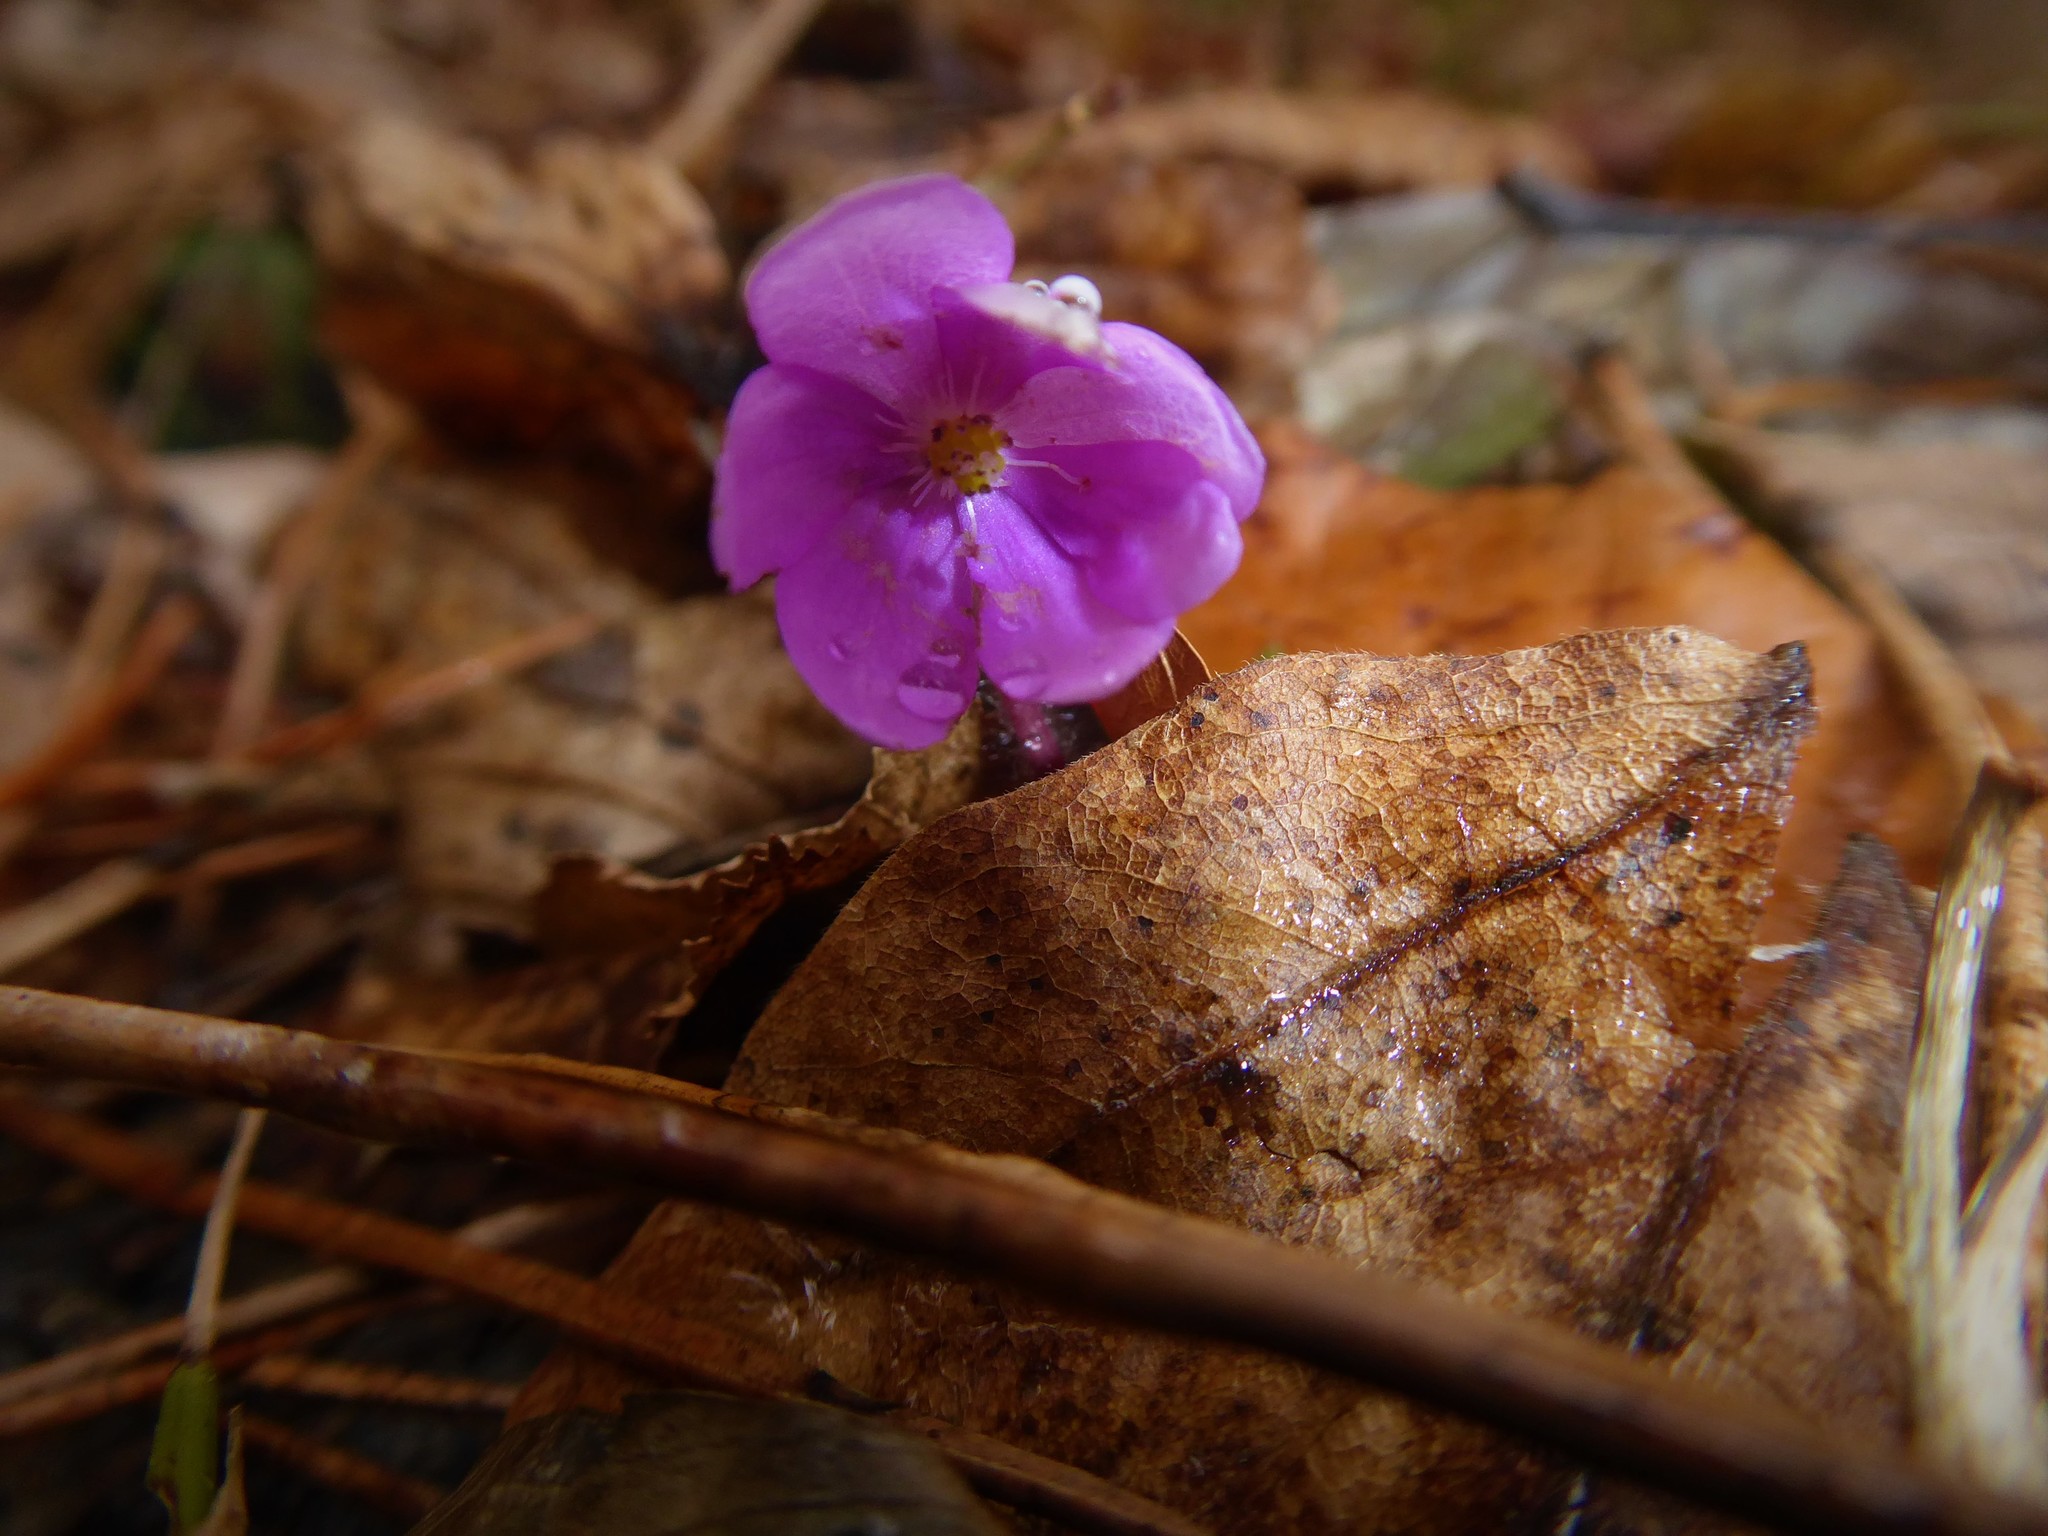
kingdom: Plantae
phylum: Tracheophyta
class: Magnoliopsida
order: Ranunculales
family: Ranunculaceae
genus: Hepatica
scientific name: Hepatica nobilis
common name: Liverleaf
